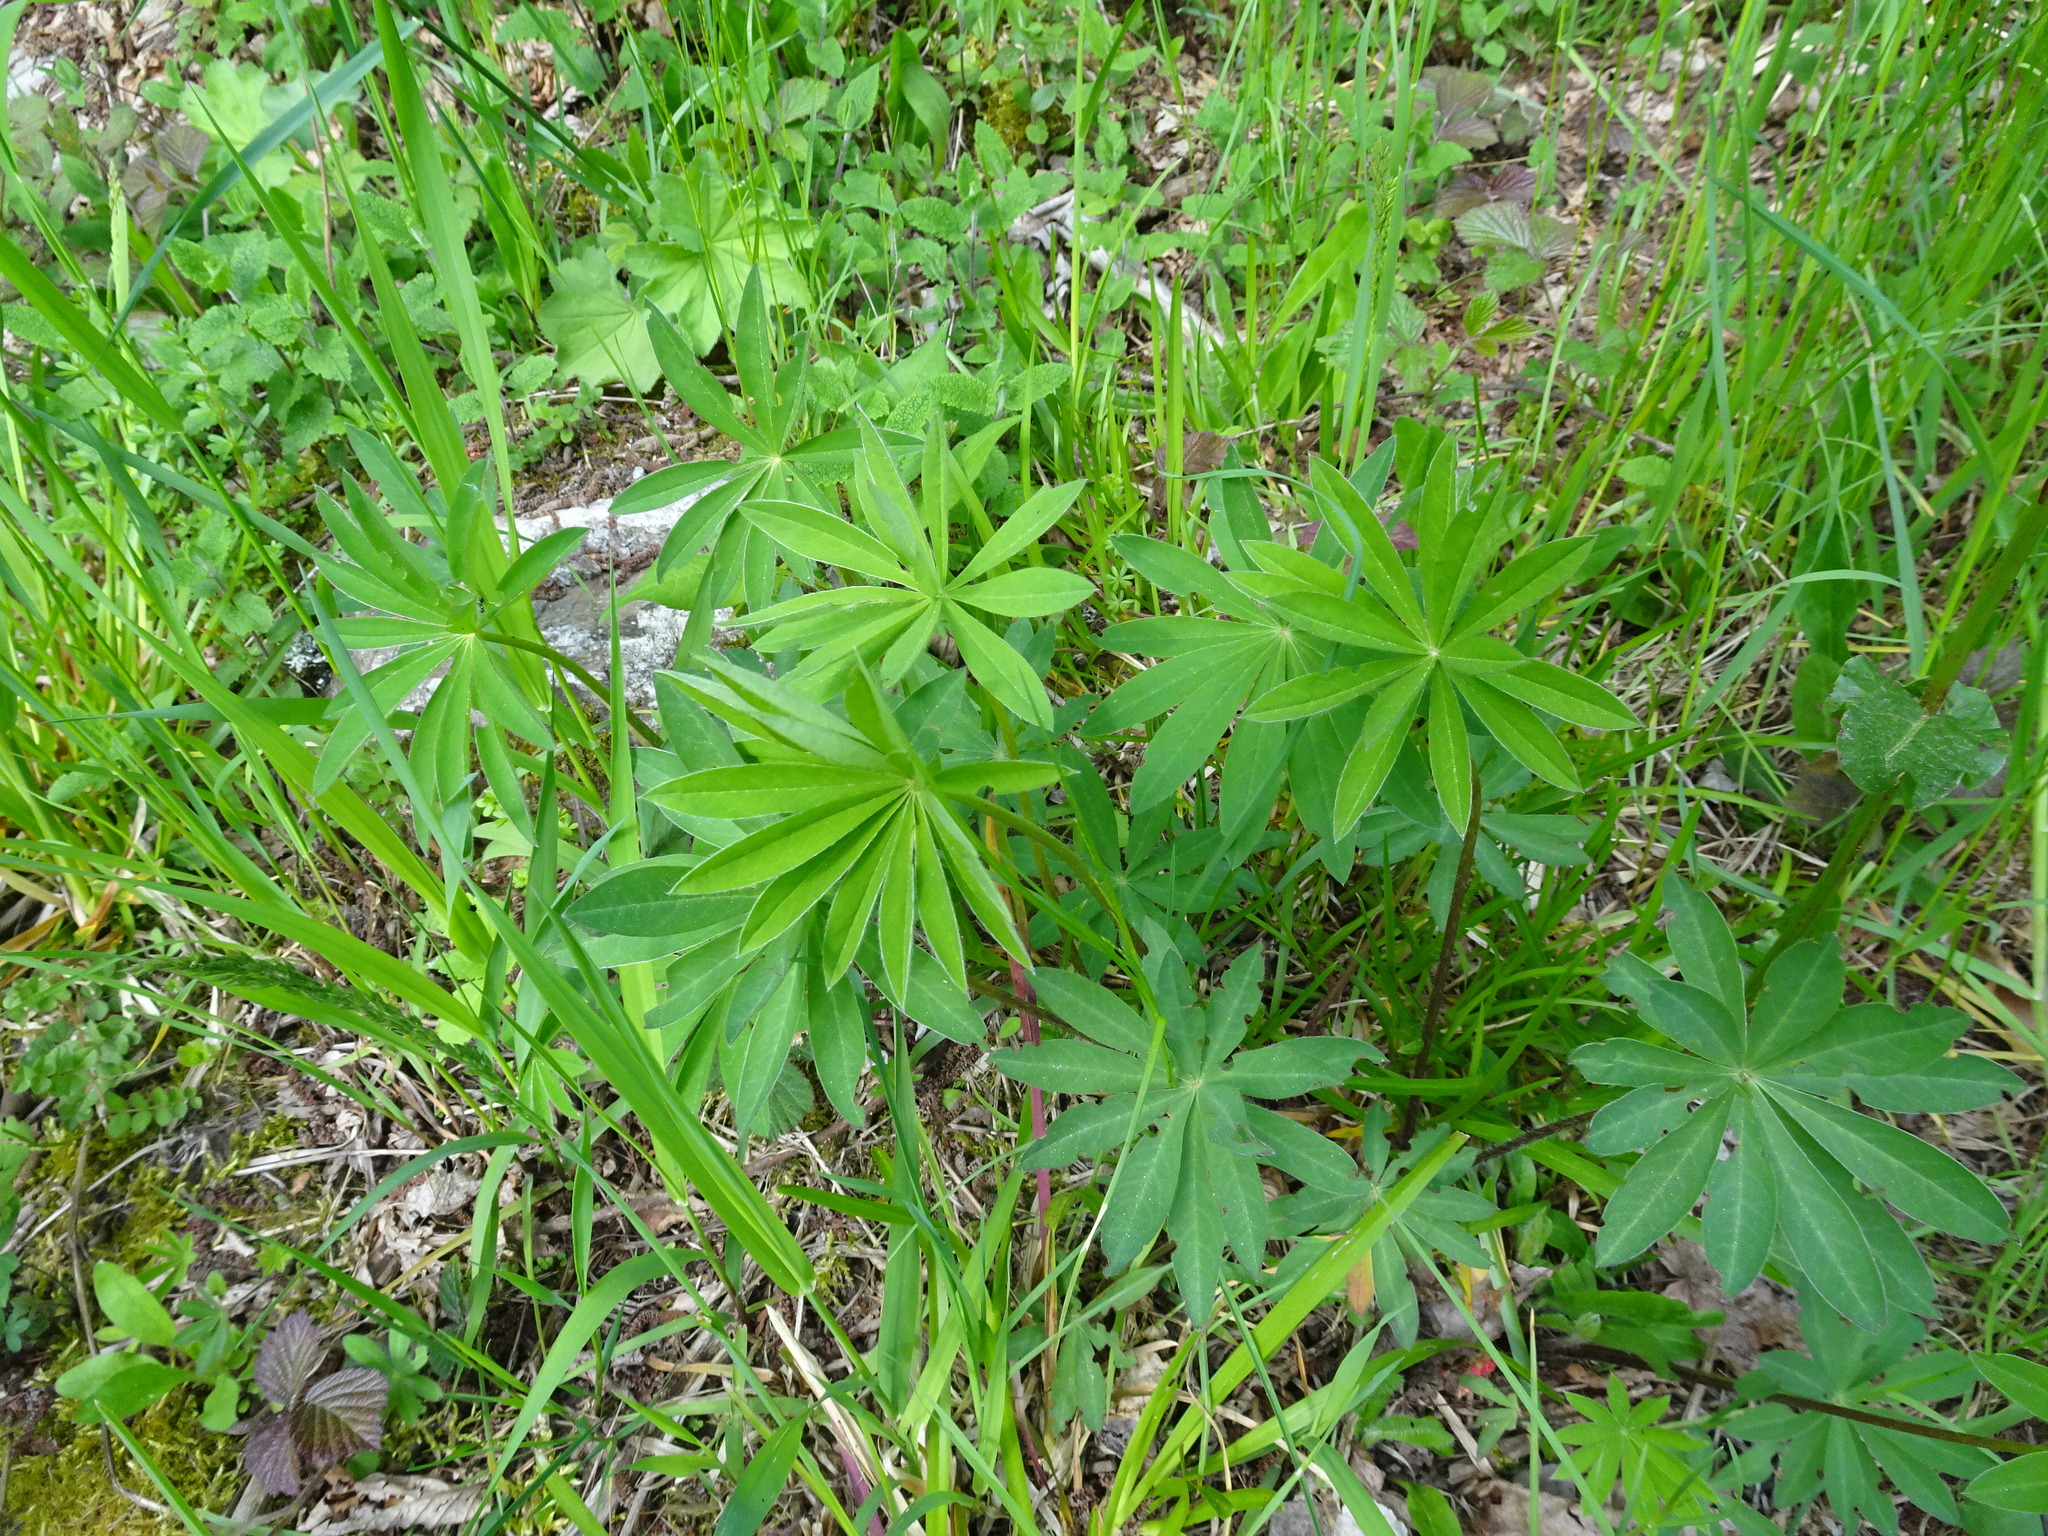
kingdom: Plantae
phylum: Tracheophyta
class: Magnoliopsida
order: Fabales
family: Fabaceae
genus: Lupinus
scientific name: Lupinus polyphyllus
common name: Garden lupin
